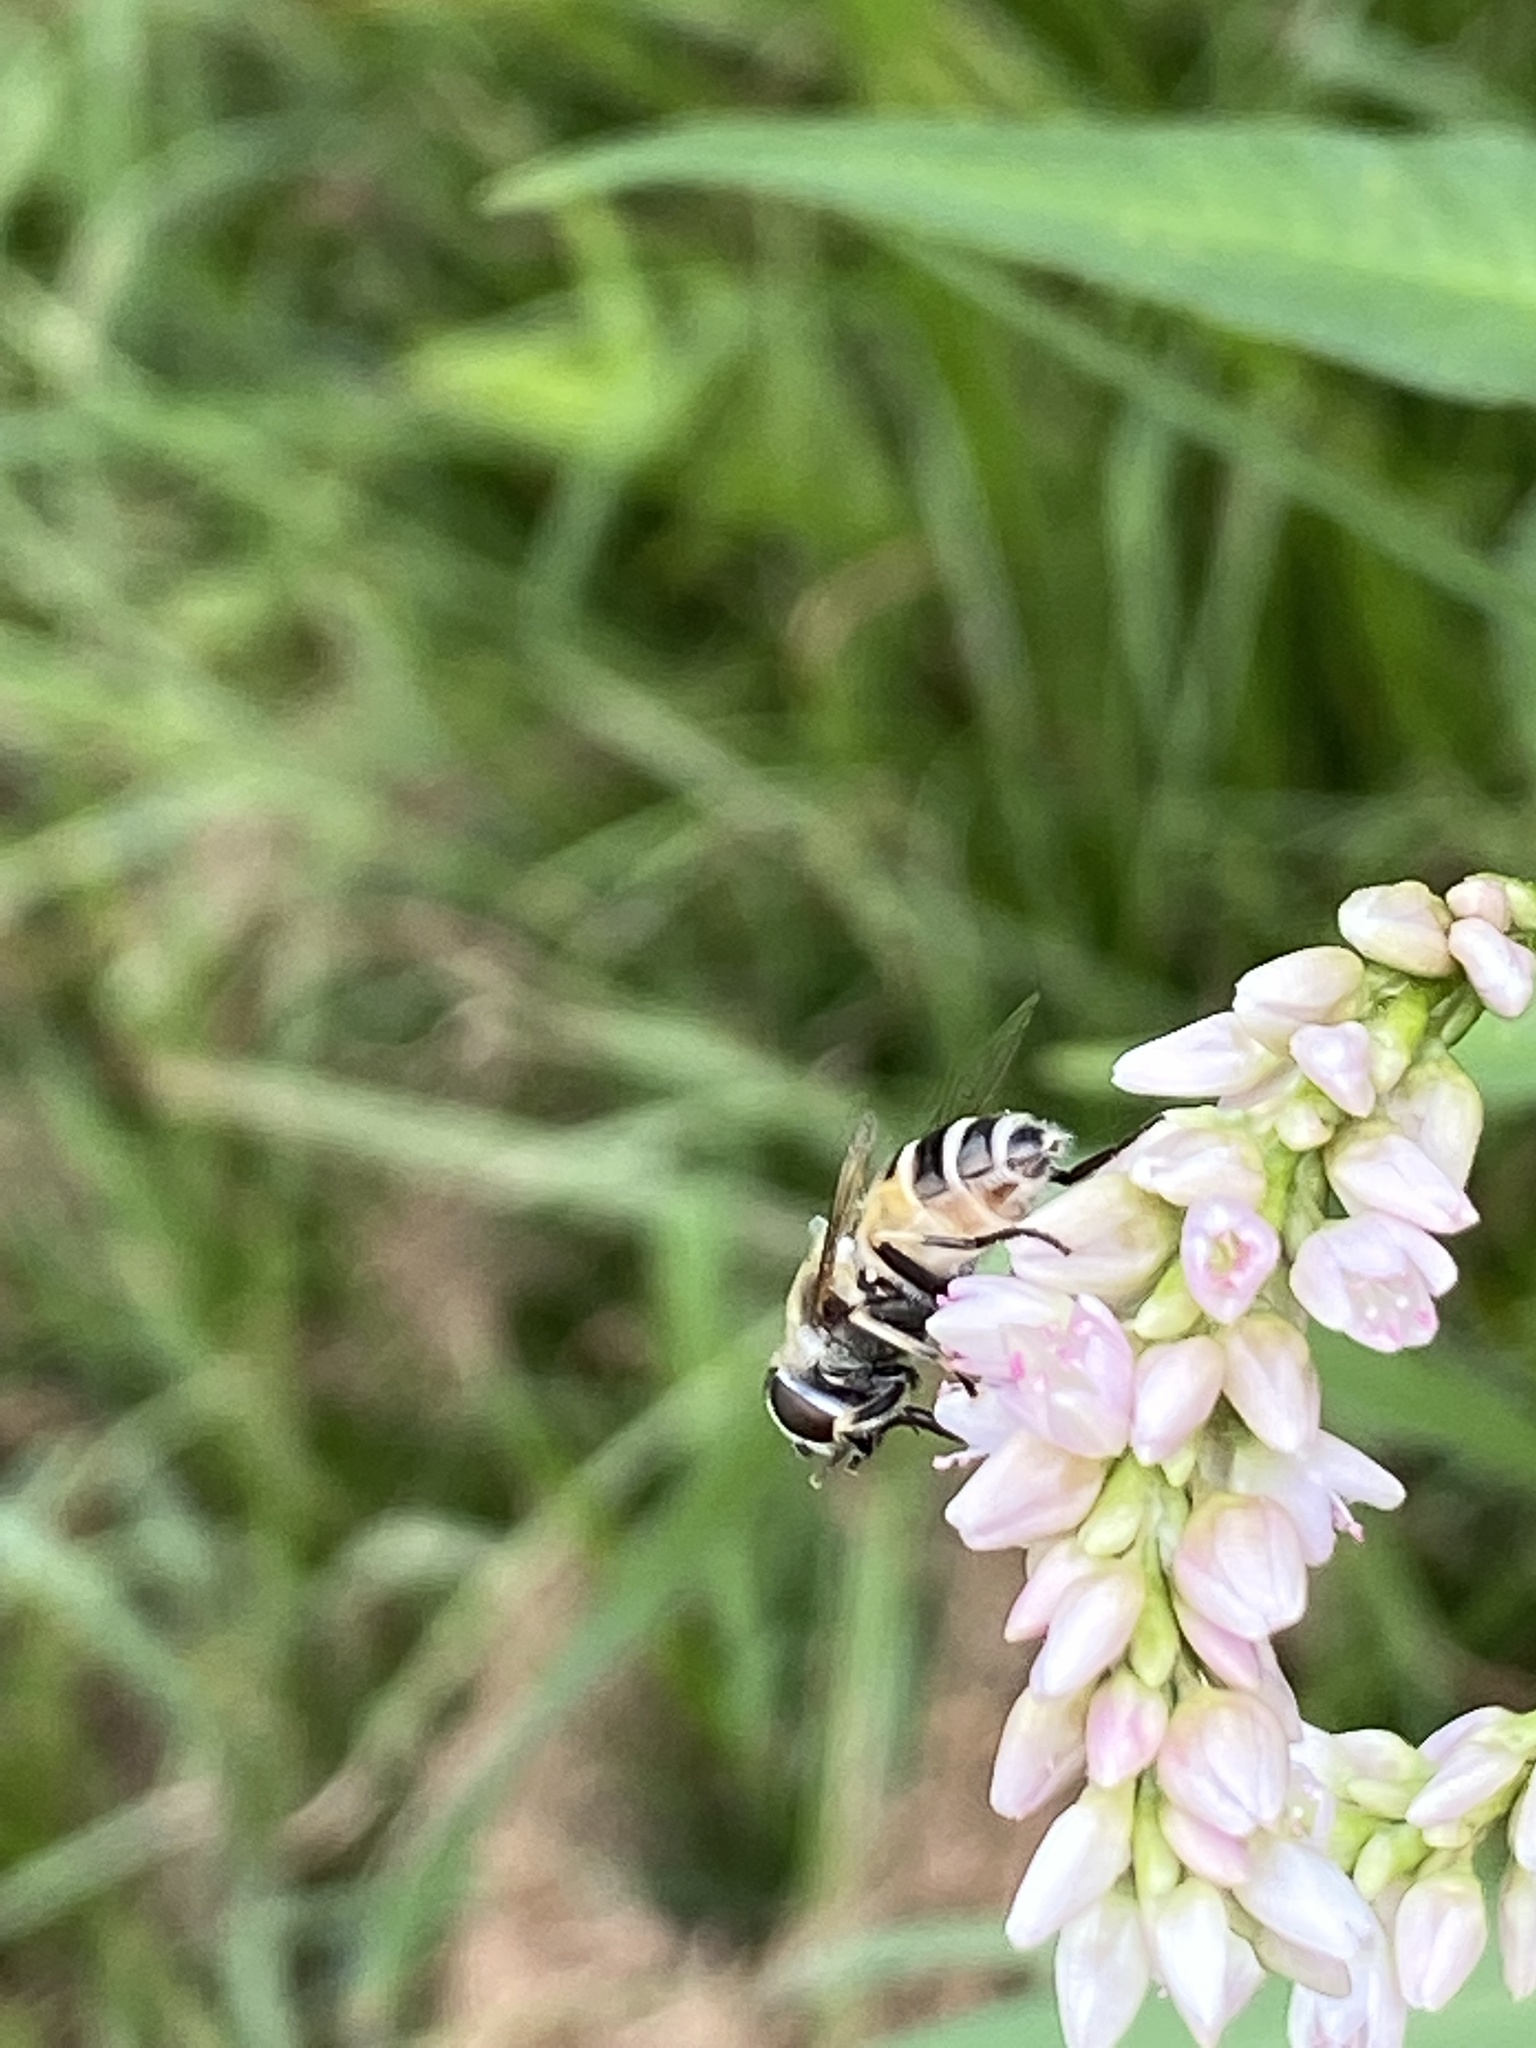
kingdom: Animalia
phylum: Arthropoda
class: Insecta
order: Diptera
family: Syrphidae
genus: Eristalis
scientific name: Eristalis arbustorum
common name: Hover fly
